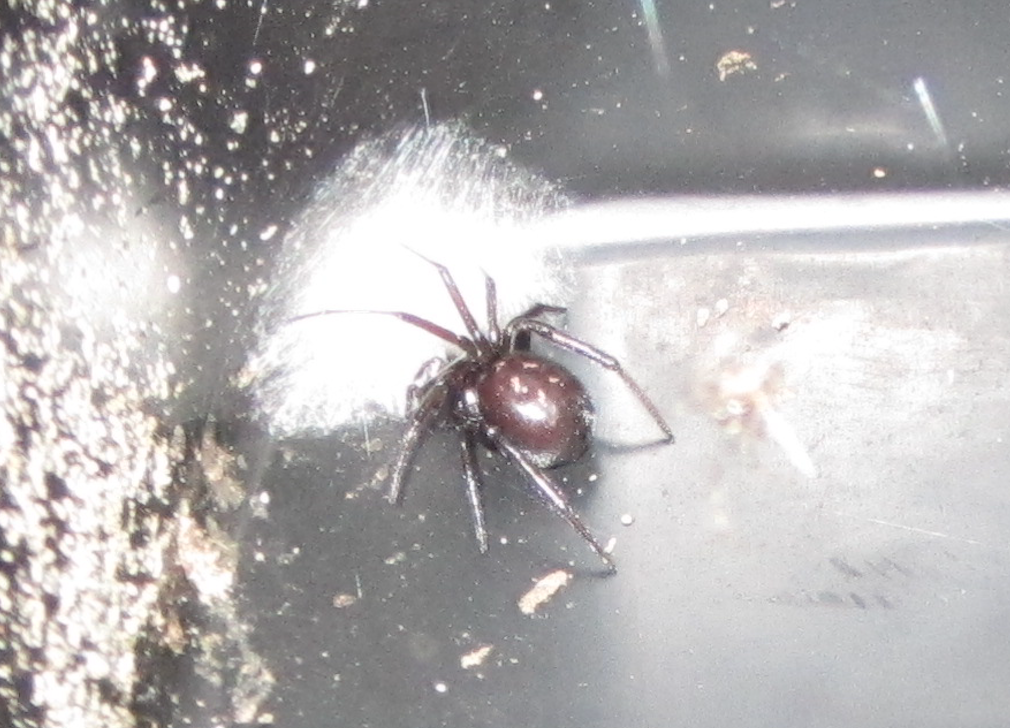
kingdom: Animalia
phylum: Arthropoda
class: Arachnida
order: Araneae
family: Theridiidae
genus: Steatoda
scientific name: Steatoda capensis
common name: Cobweb weaver
